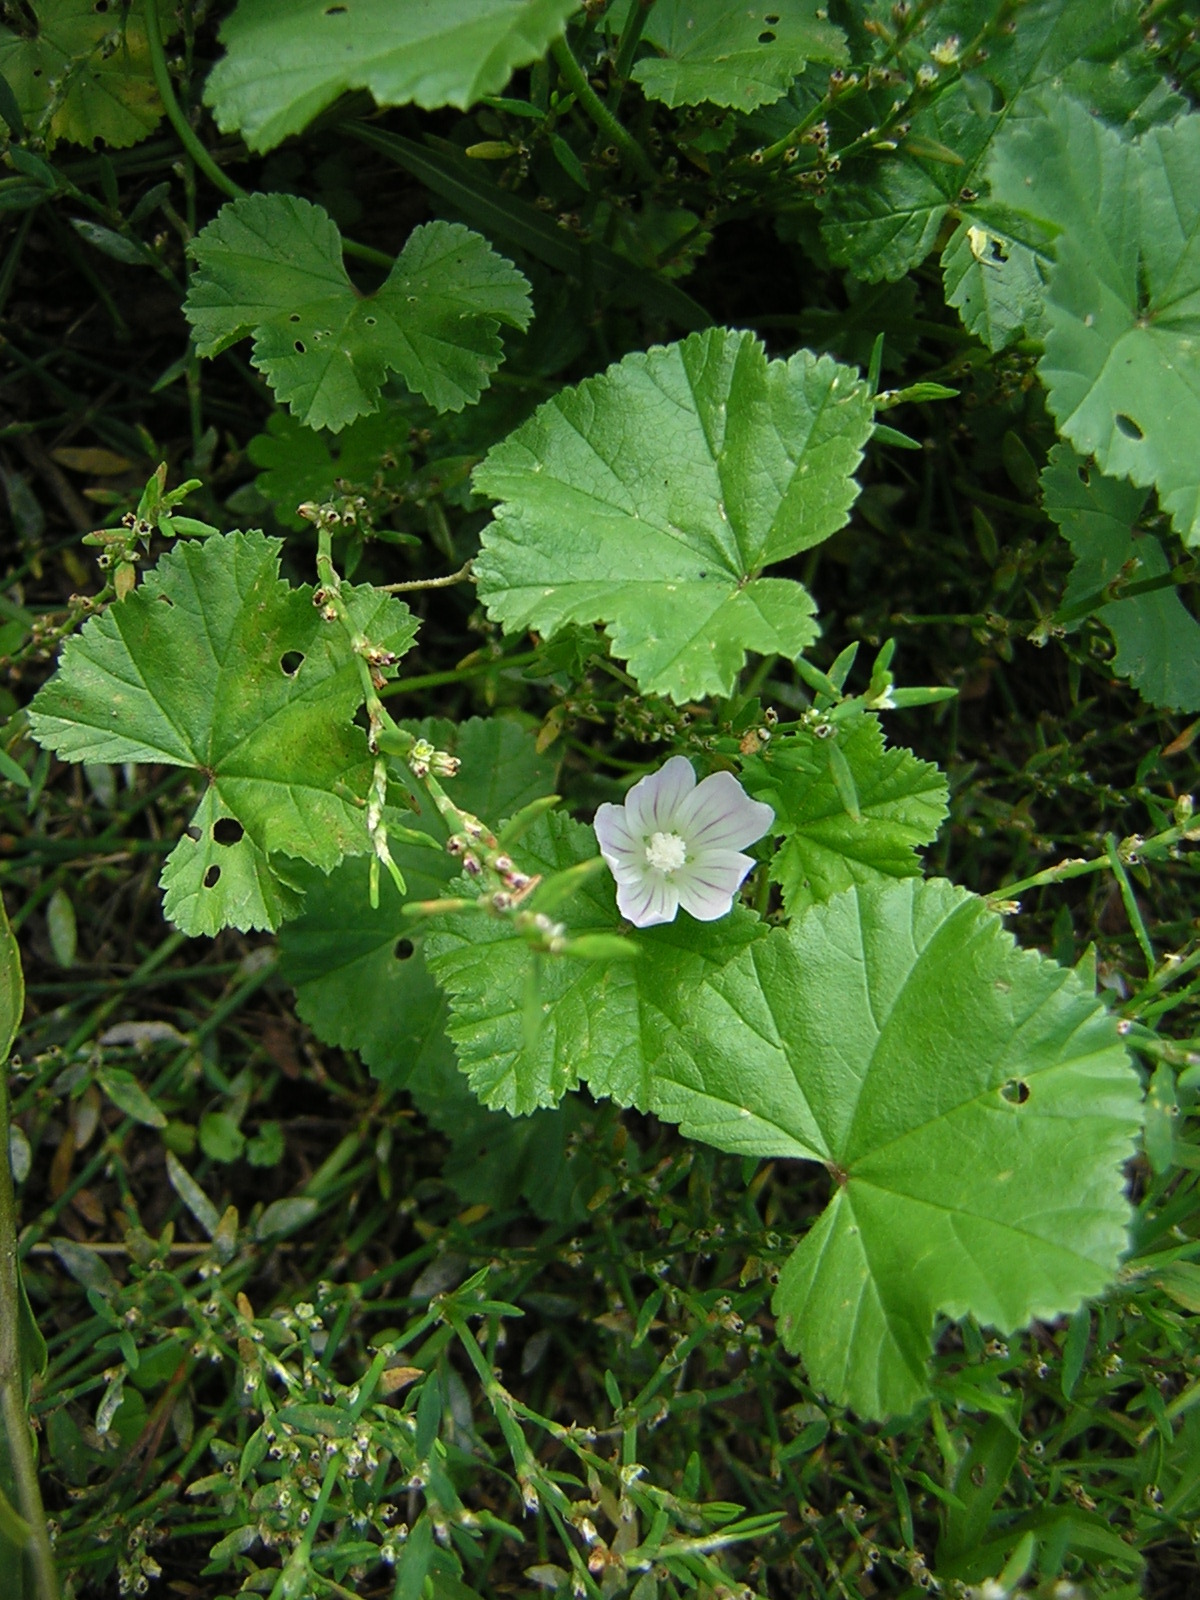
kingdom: Plantae
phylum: Tracheophyta
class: Magnoliopsida
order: Malvales
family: Malvaceae
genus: Malva
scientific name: Malva neglecta
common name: Common mallow
